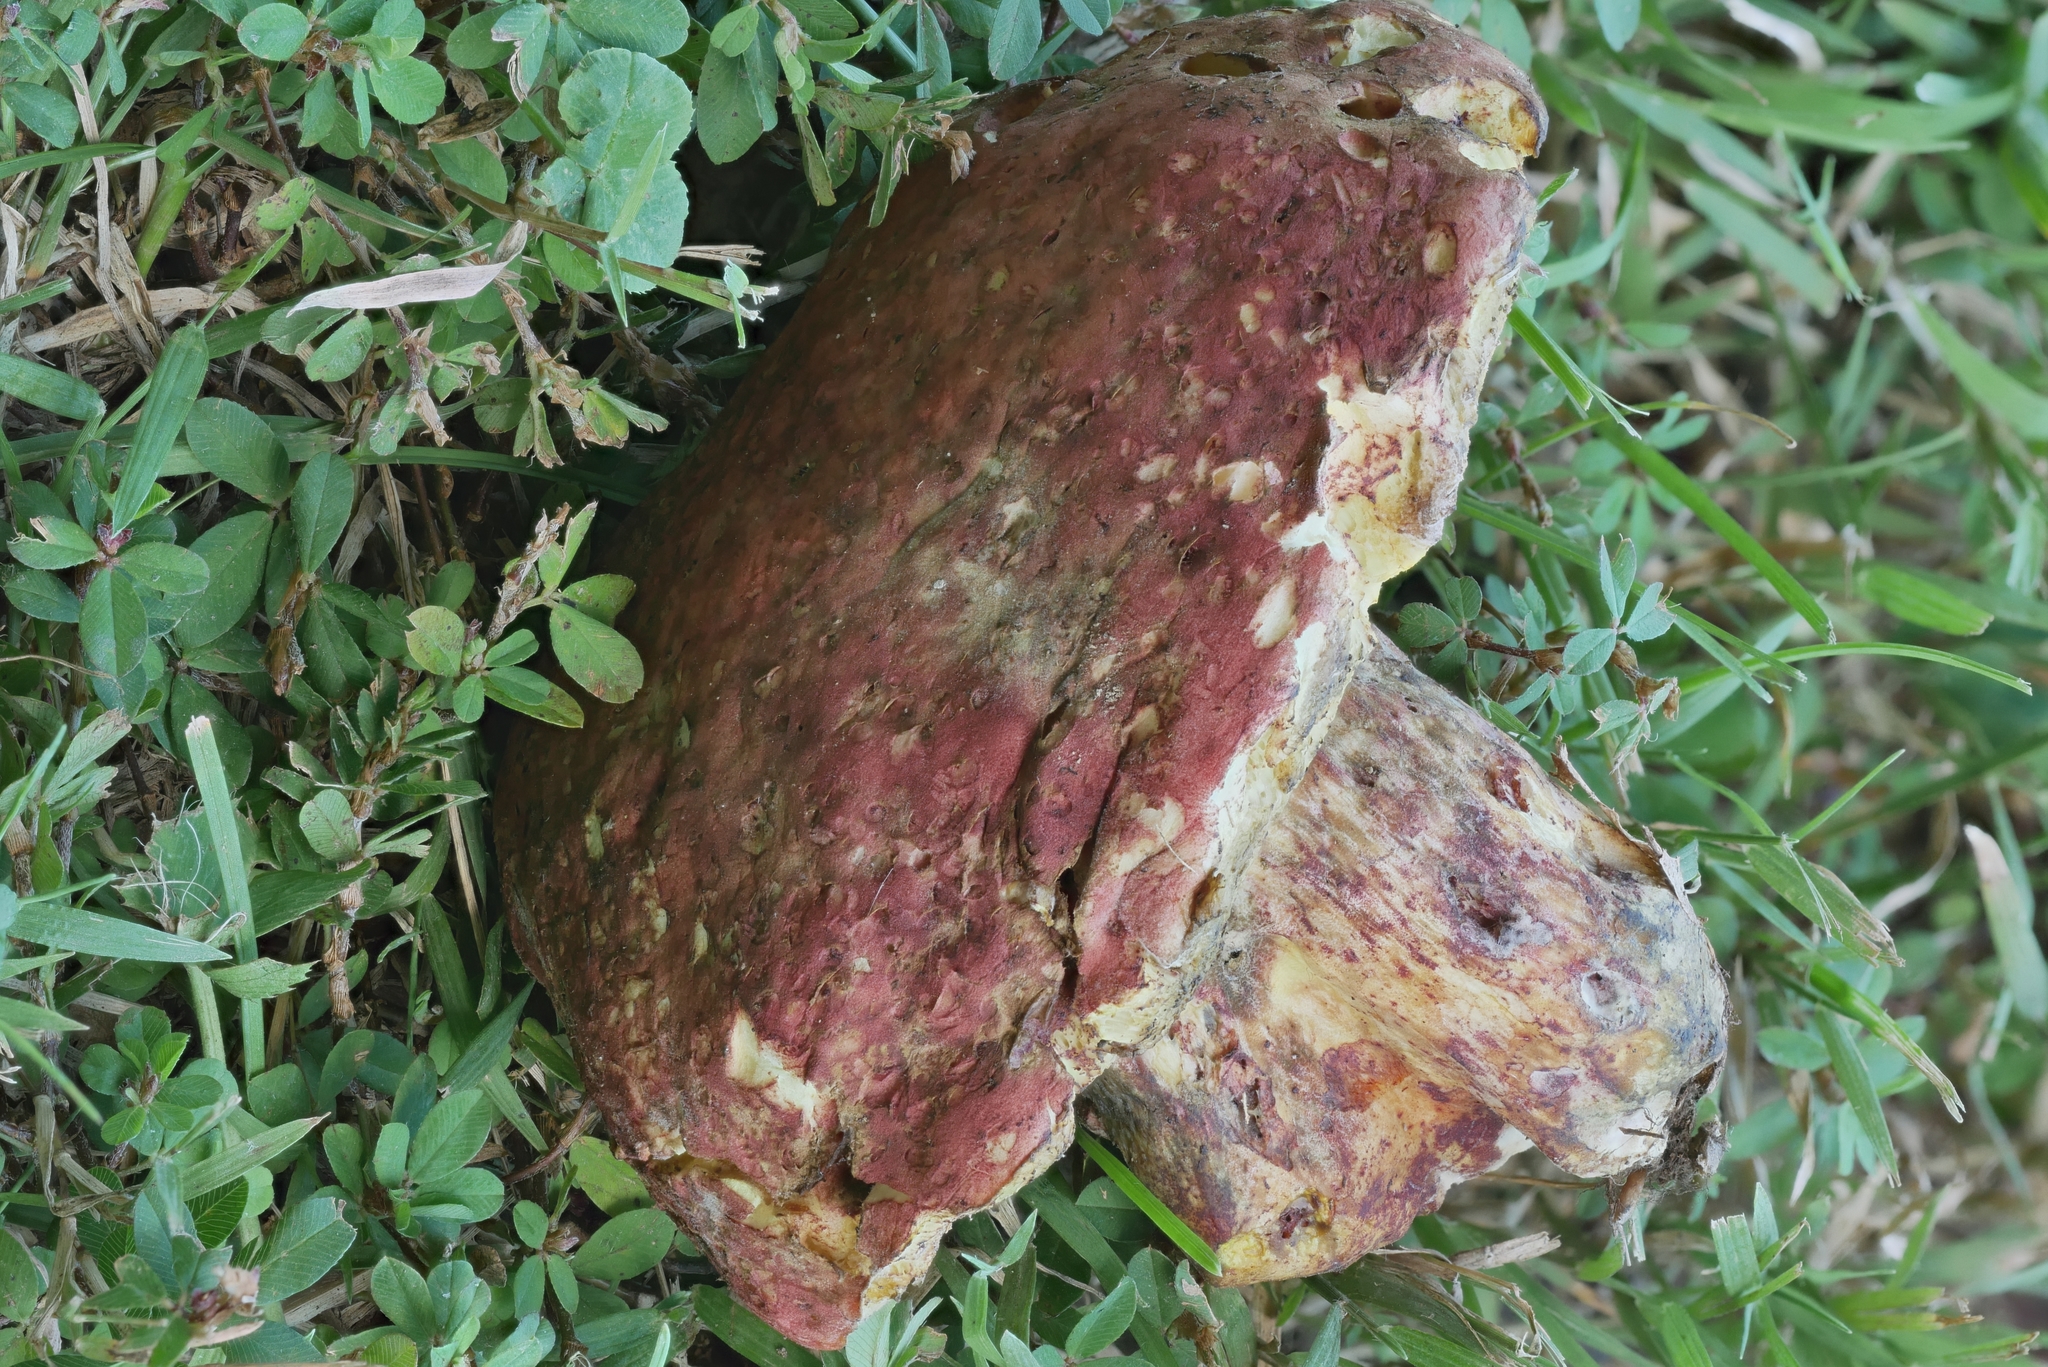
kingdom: Fungi
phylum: Basidiomycota
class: Agaricomycetes
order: Boletales
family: Boletaceae
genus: Boletus
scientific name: Boletus roodyi
